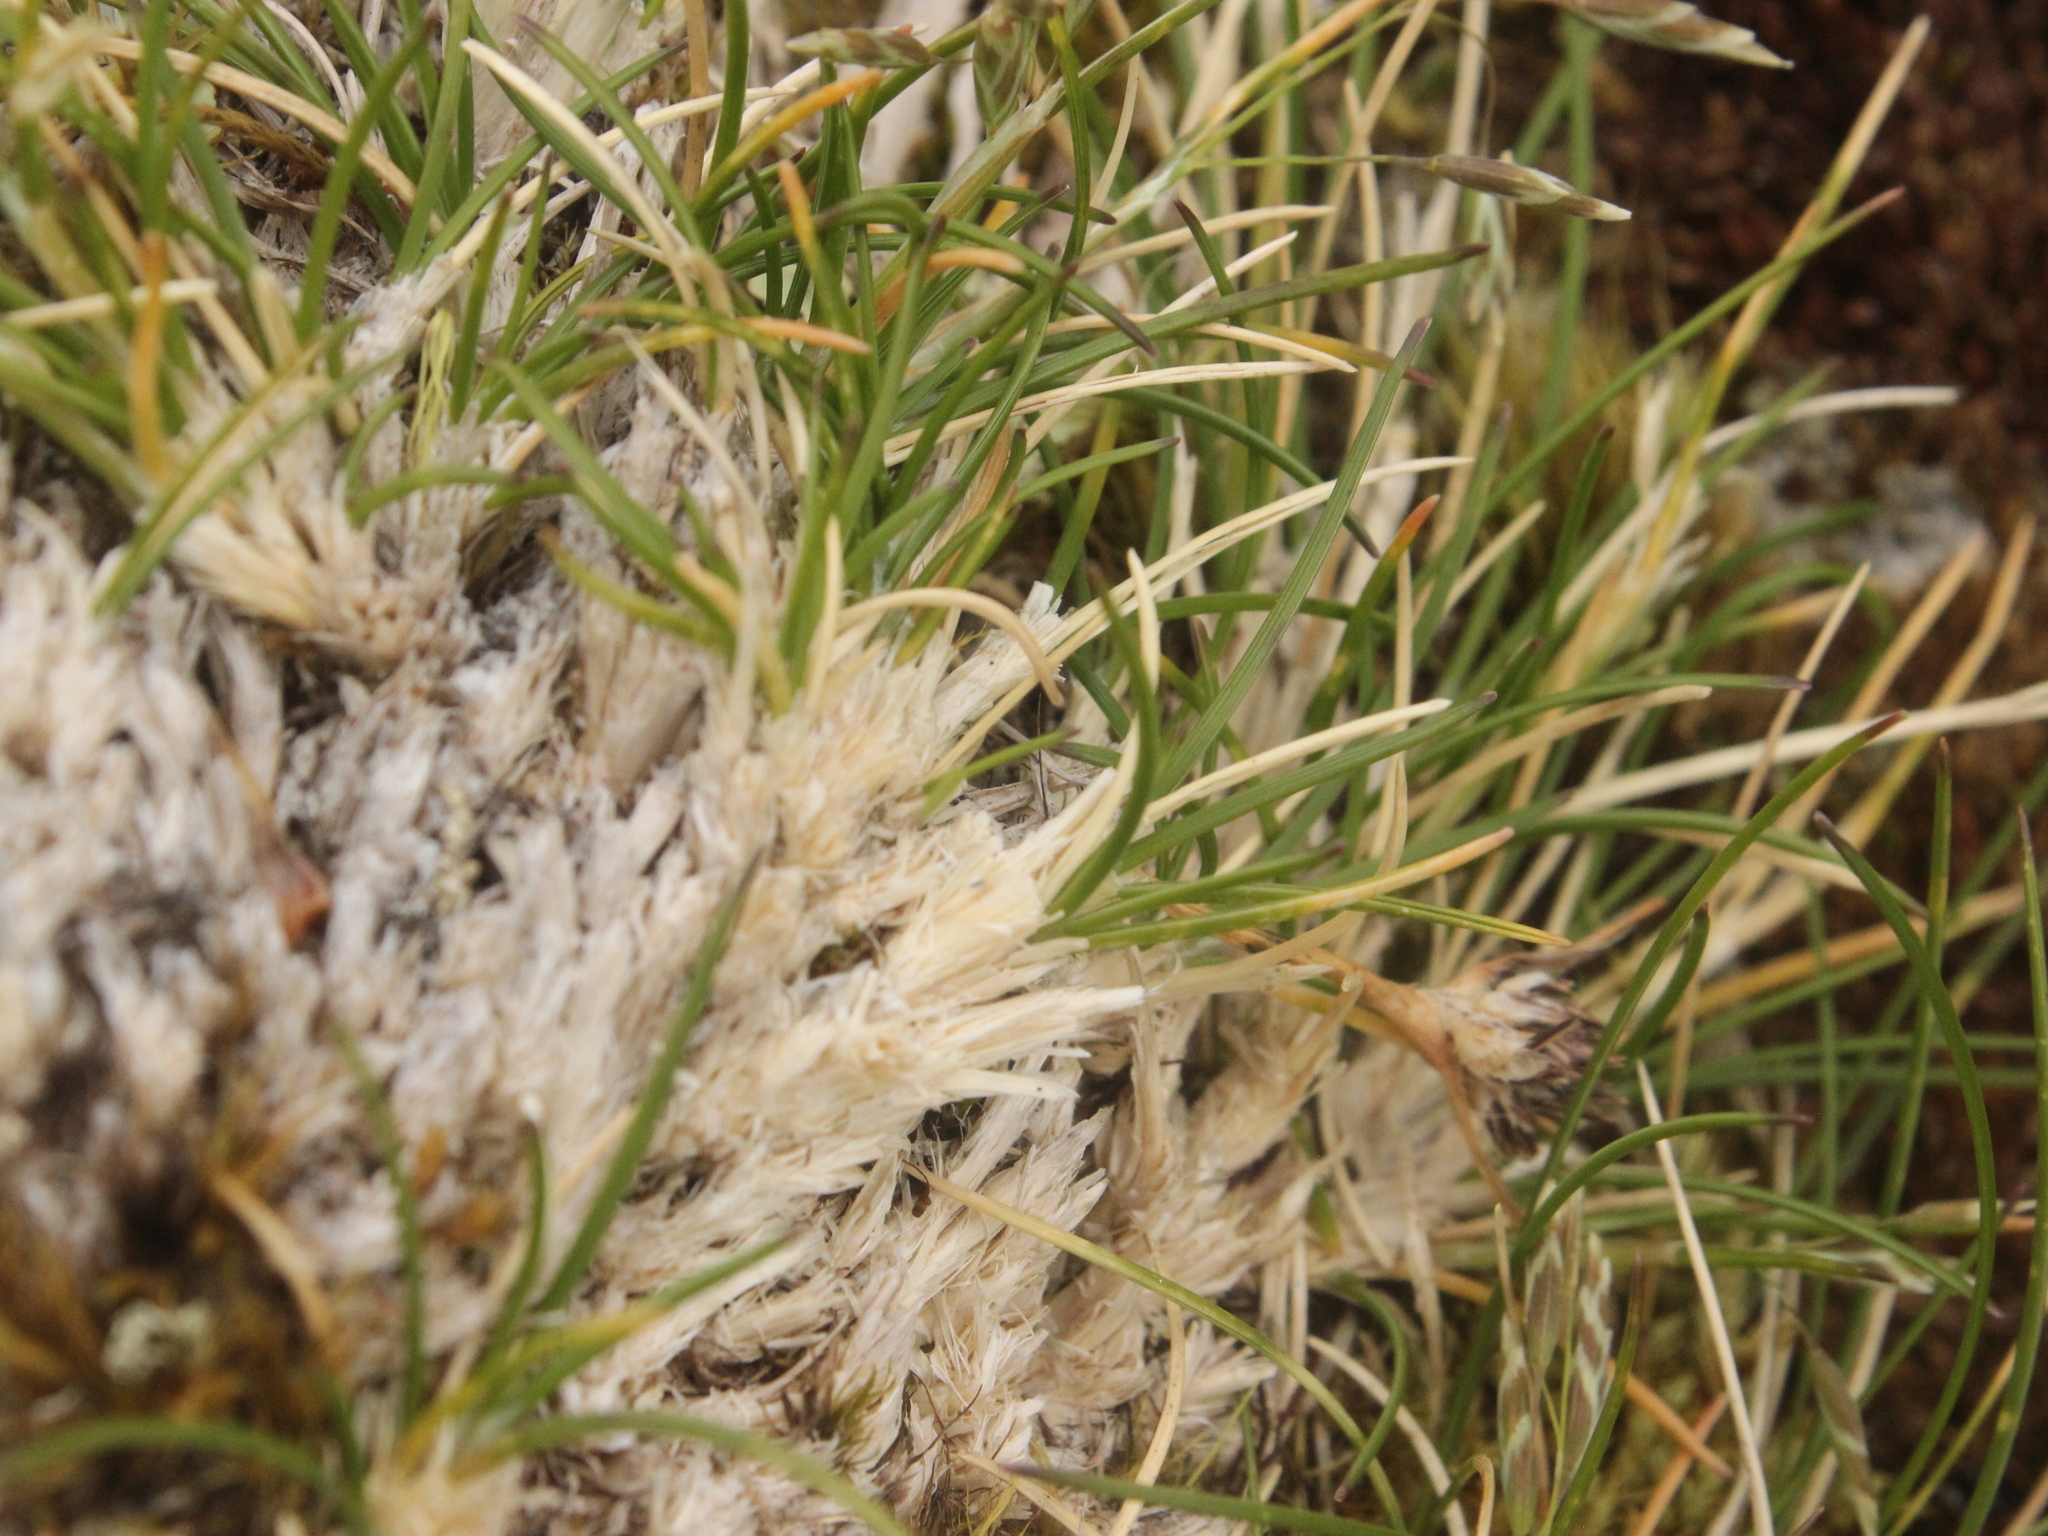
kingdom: Plantae
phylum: Tracheophyta
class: Liliopsida
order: Poales
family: Poaceae
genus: Poa
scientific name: Poa colensoi
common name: Blue tussock
